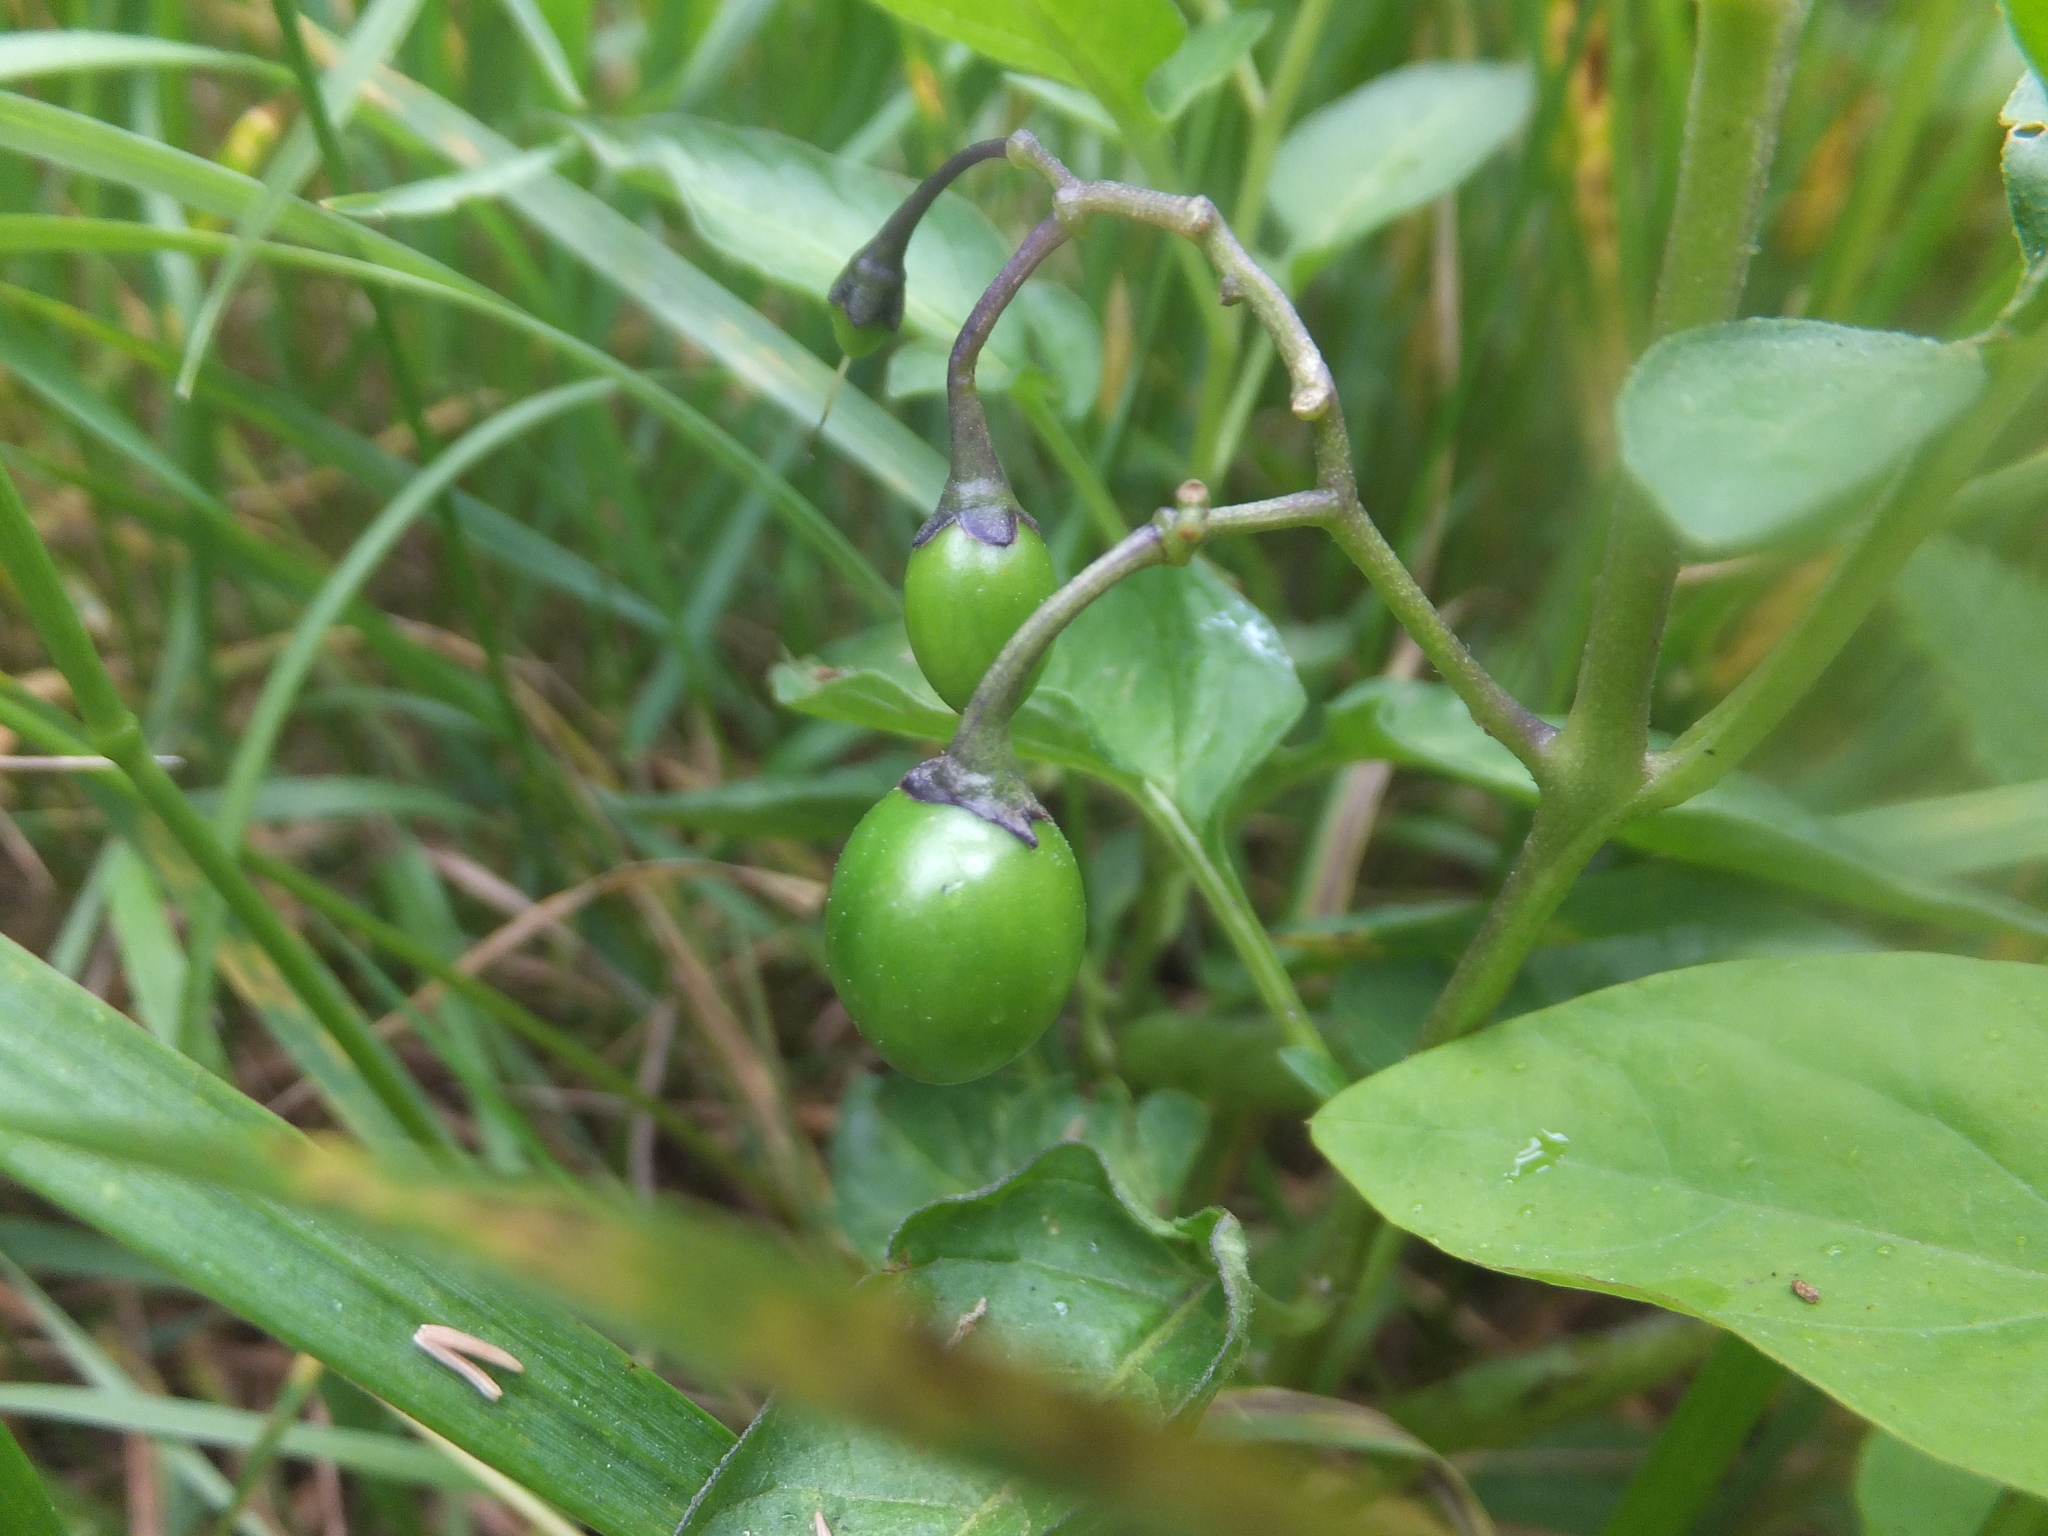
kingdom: Plantae
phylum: Tracheophyta
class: Magnoliopsida
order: Solanales
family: Solanaceae
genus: Solanum
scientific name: Solanum dulcamara
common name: Climbing nightshade
